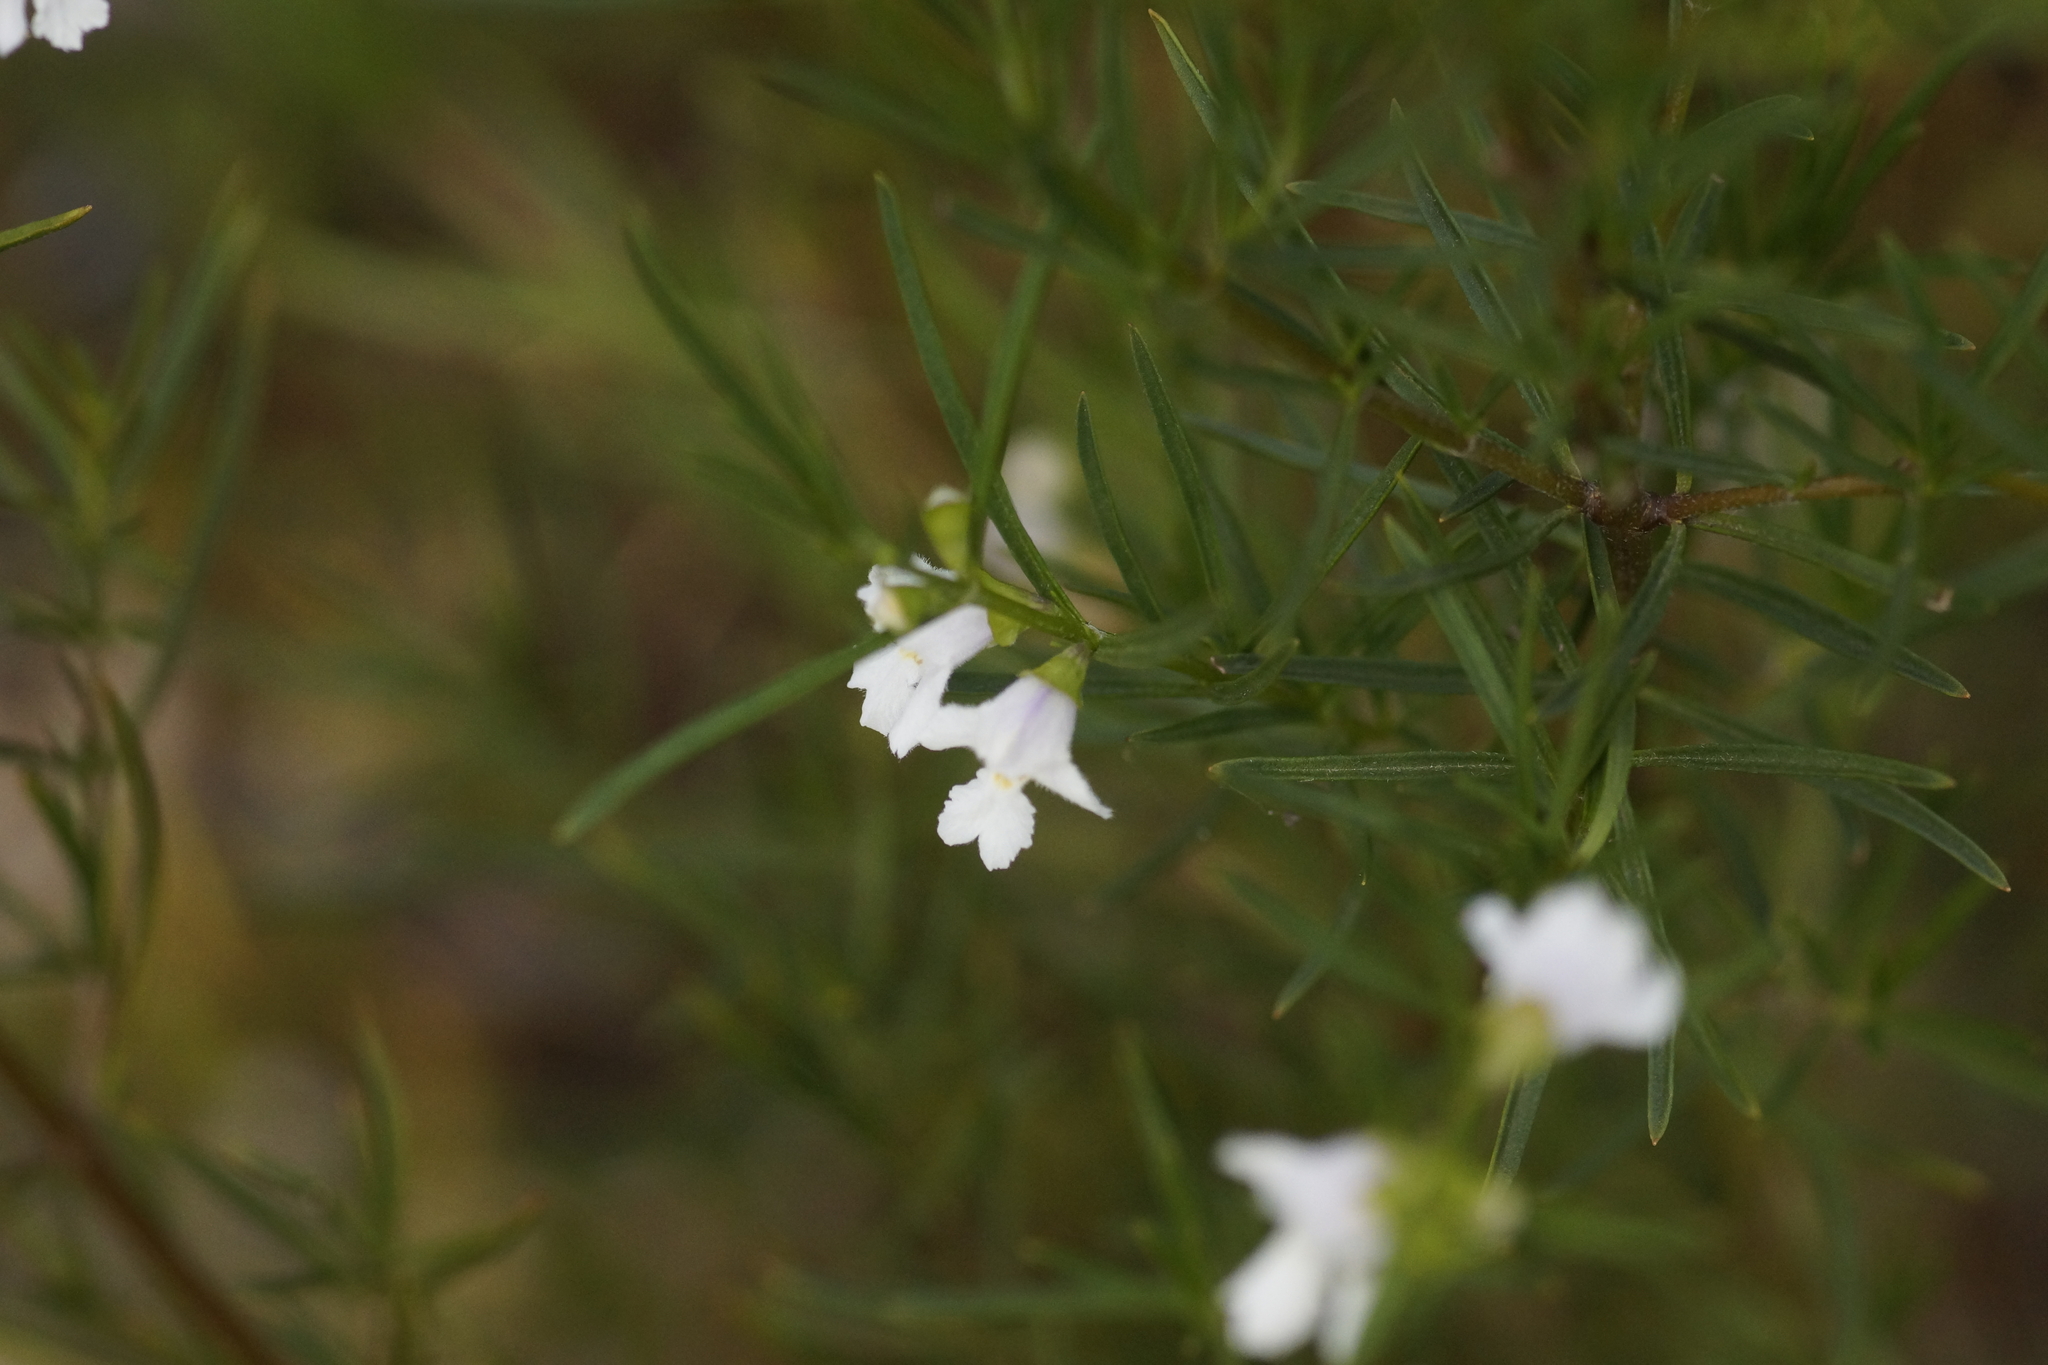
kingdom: Plantae
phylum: Tracheophyta
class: Magnoliopsida
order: Lamiales
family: Lamiaceae
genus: Prostanthera
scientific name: Prostanthera nivea
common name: Snowy mintbush
